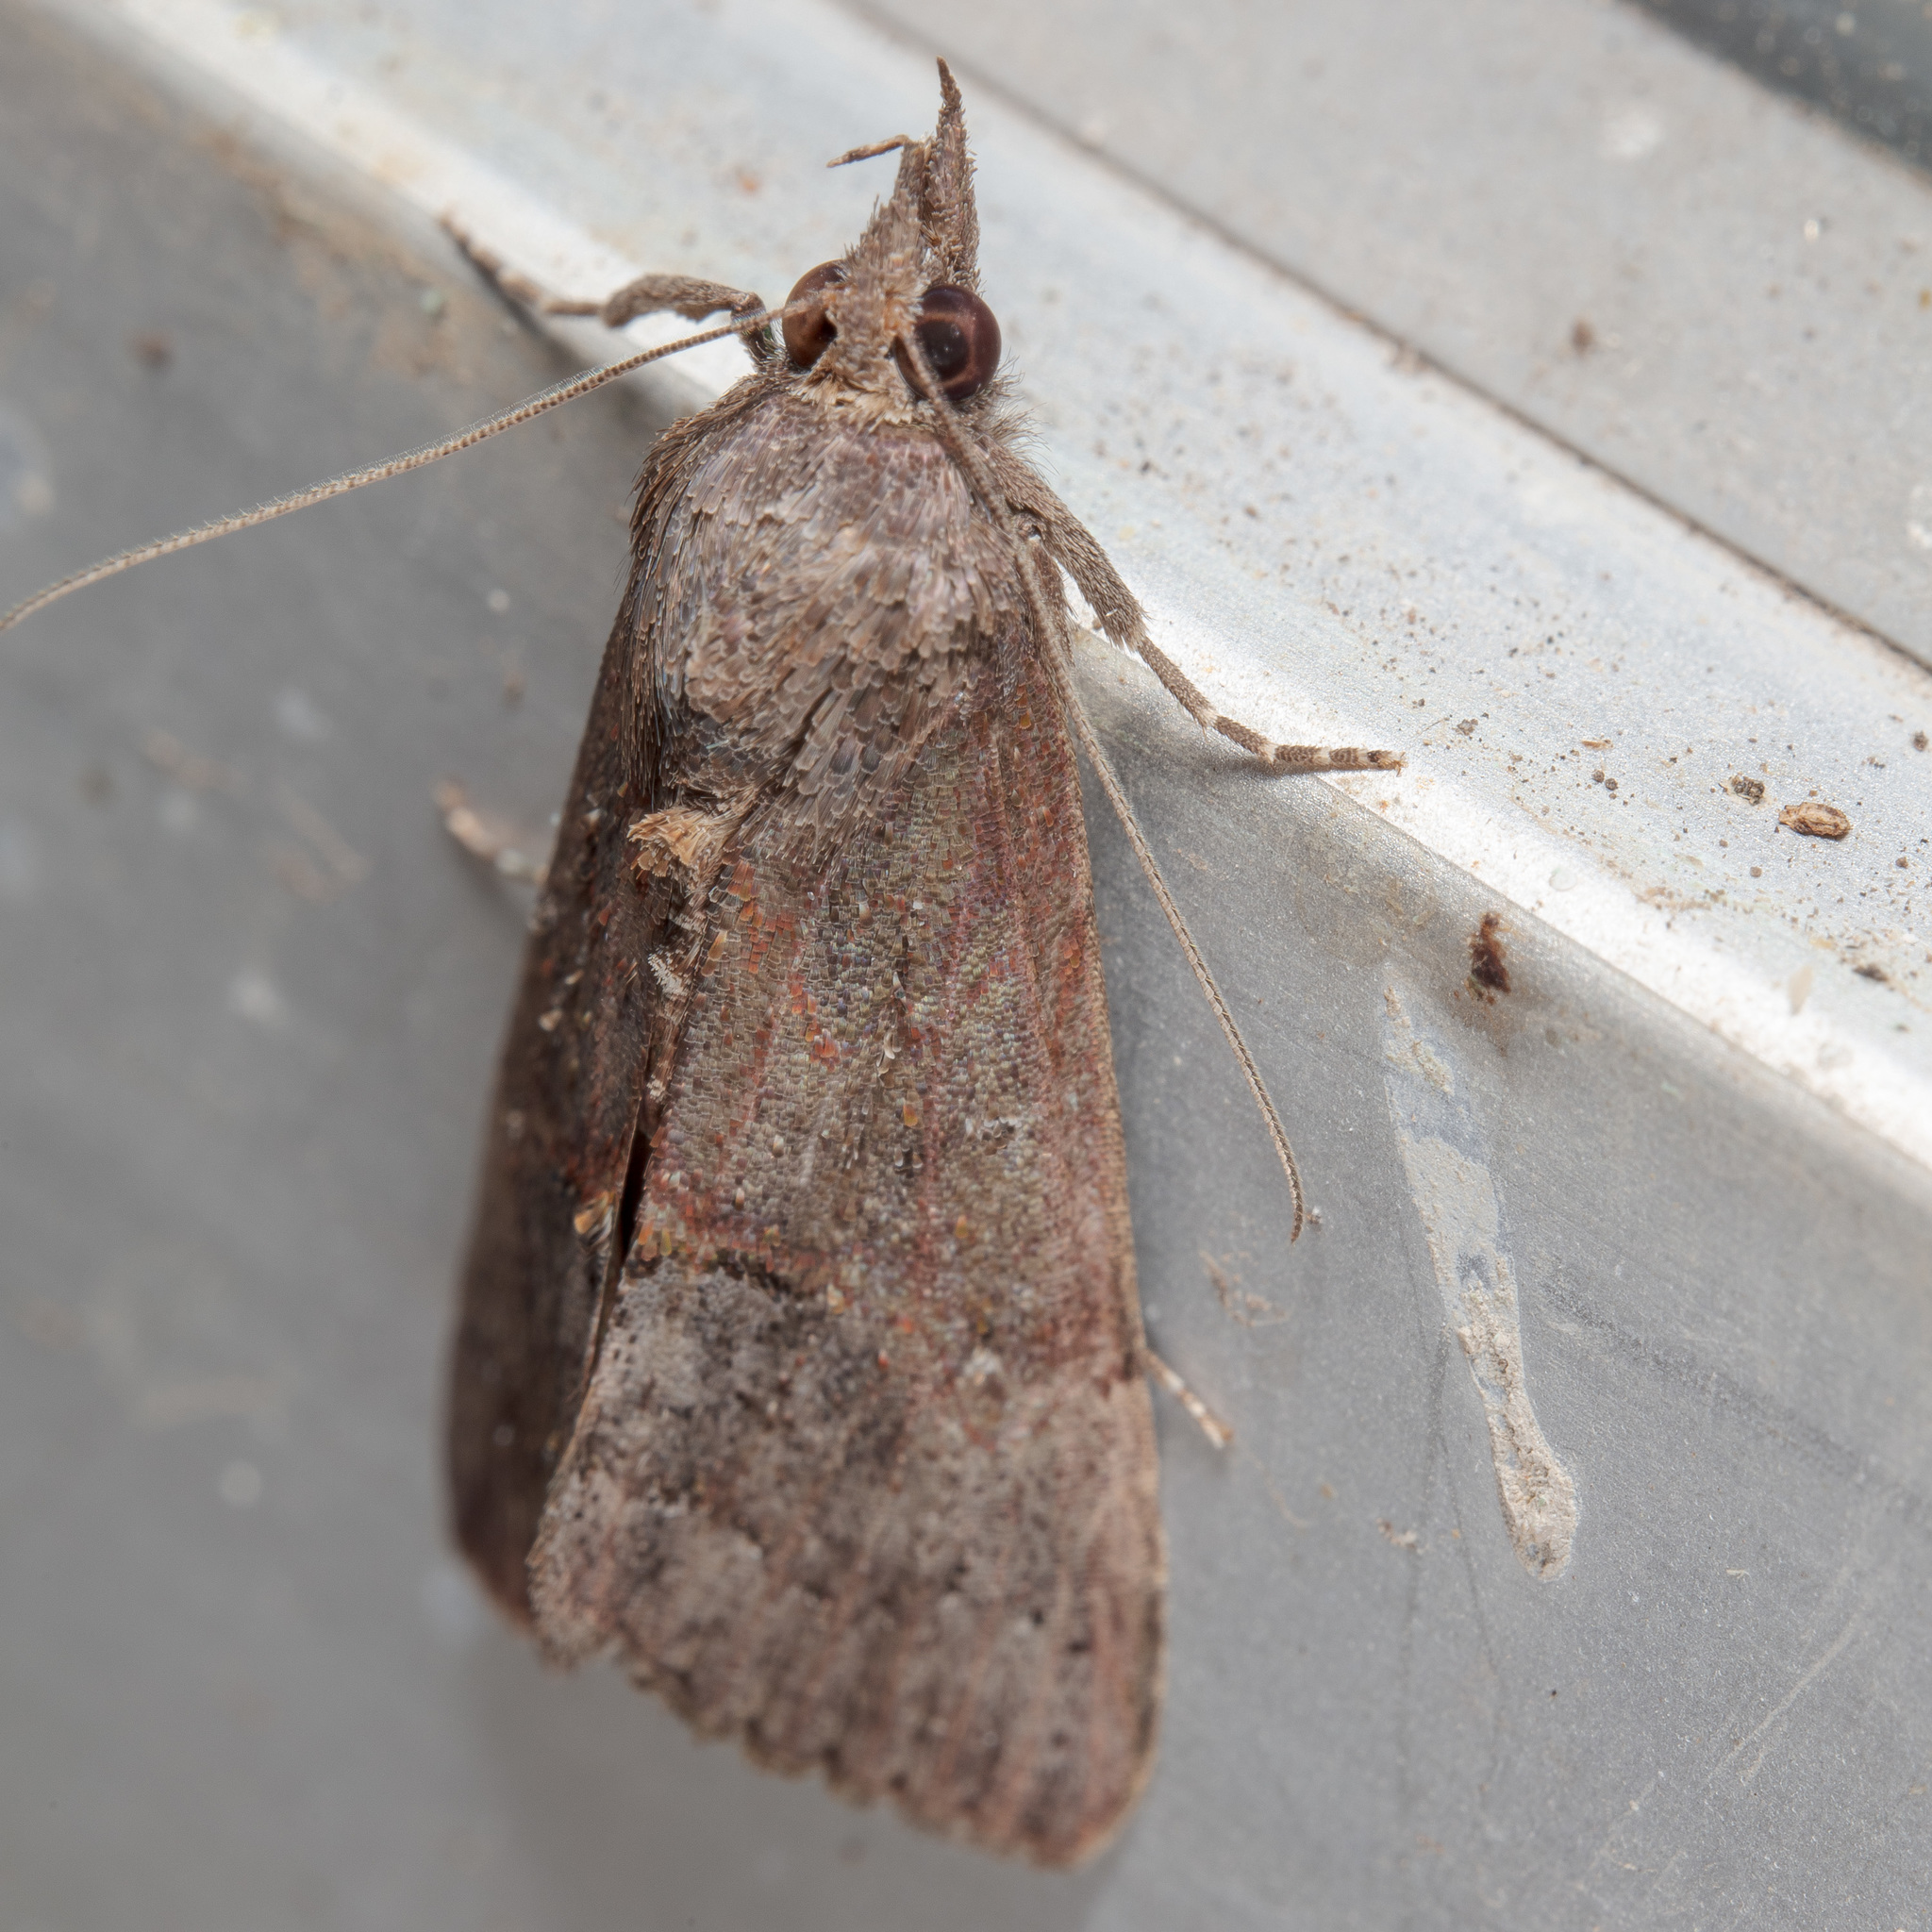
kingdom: Animalia
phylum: Arthropoda
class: Insecta
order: Lepidoptera
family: Erebidae
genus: Hypena
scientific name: Hypena scabra
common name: Green cloverworm
